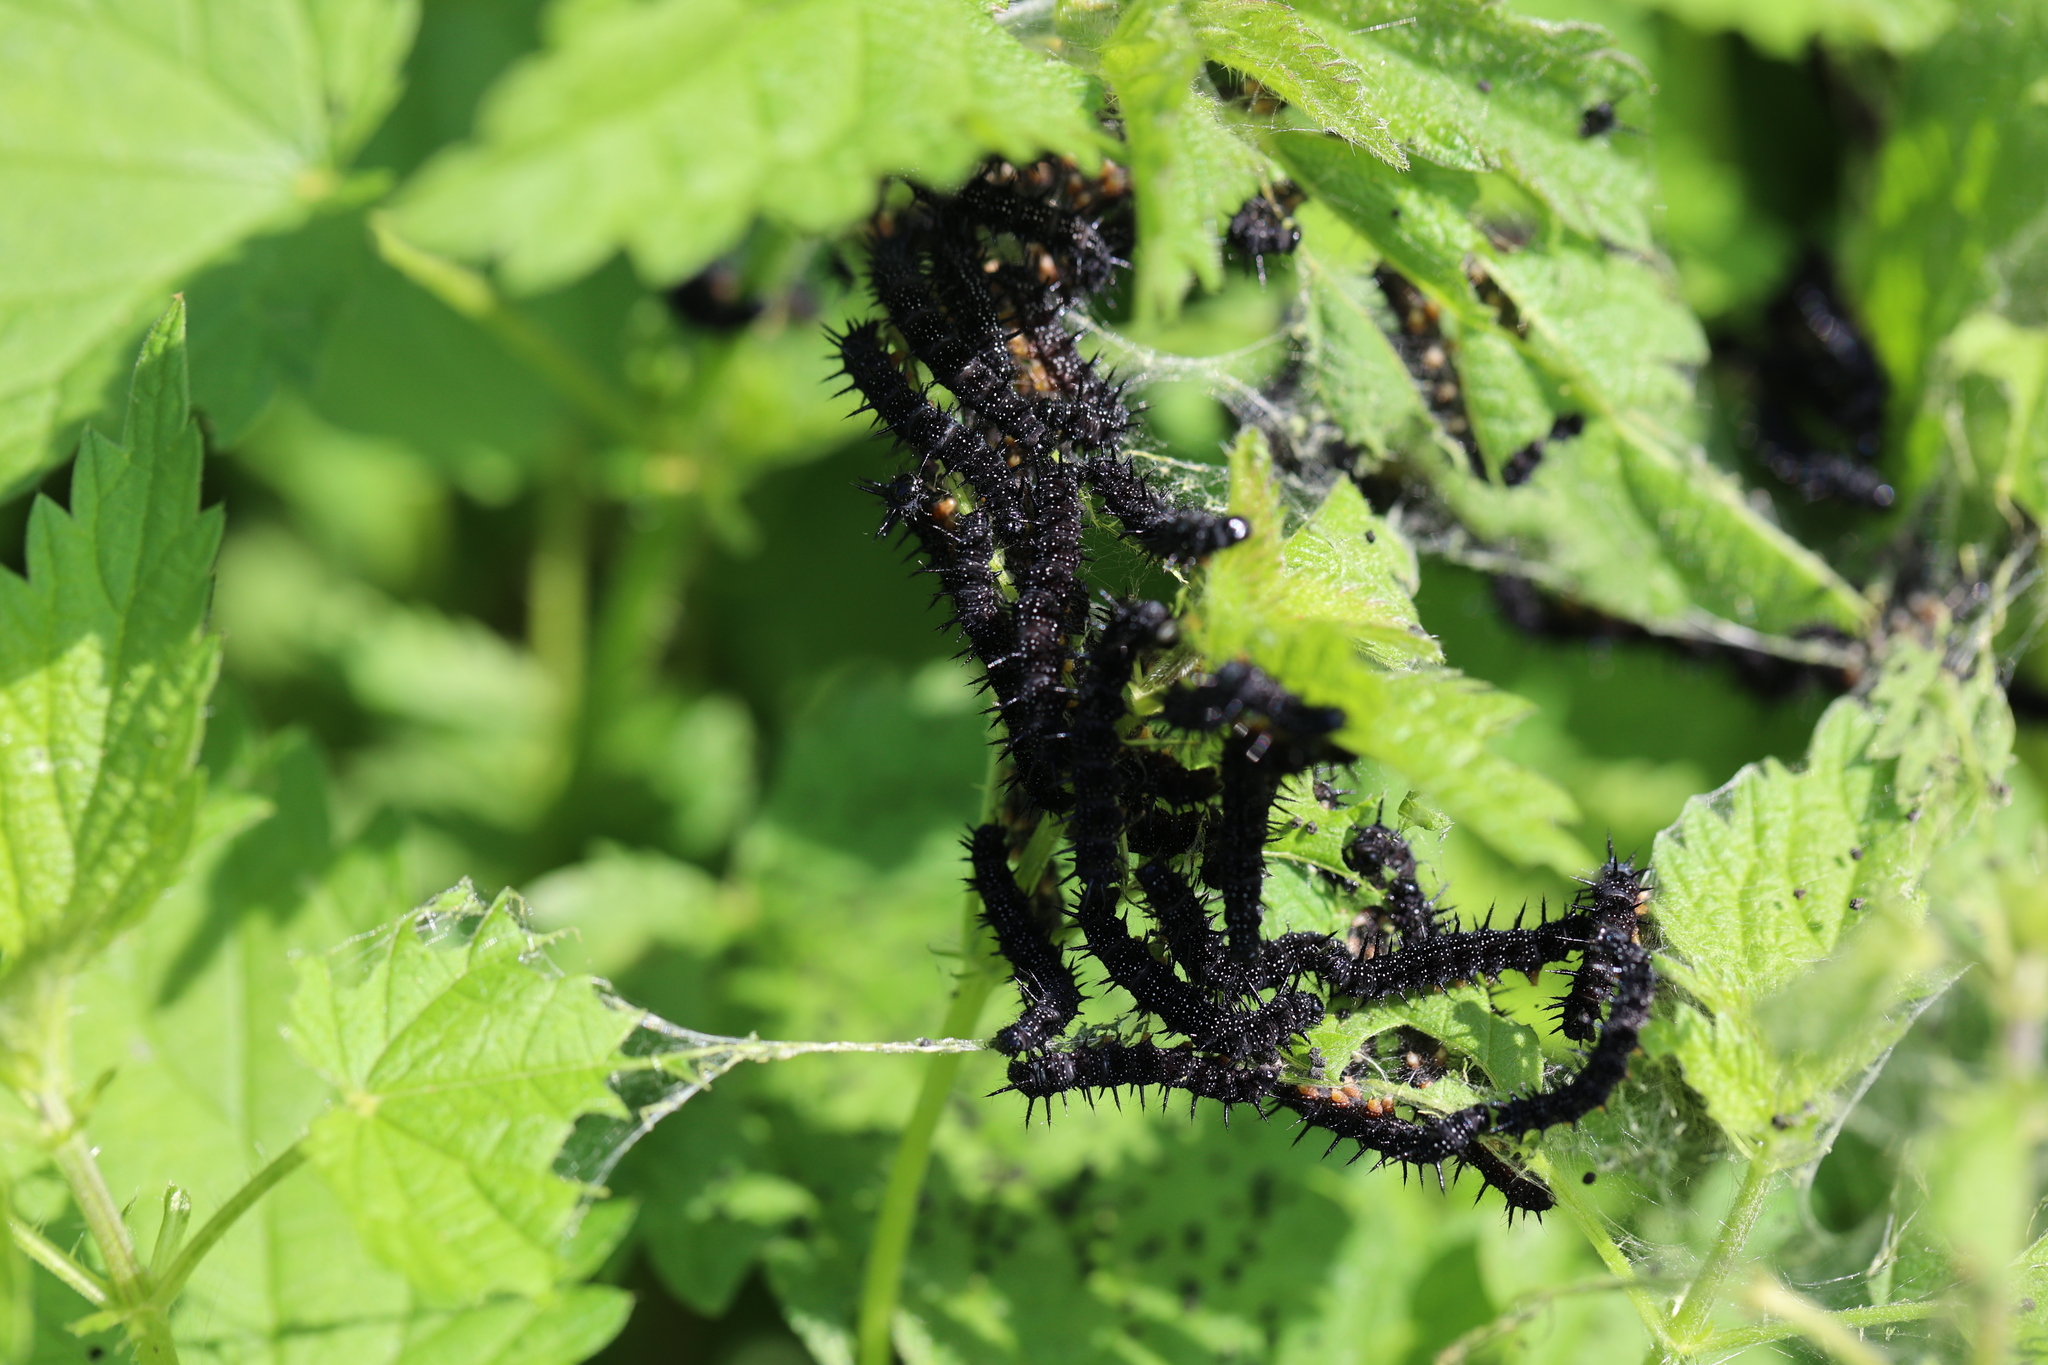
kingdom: Animalia
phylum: Arthropoda
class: Insecta
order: Lepidoptera
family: Nymphalidae
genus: Aglais
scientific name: Aglais io
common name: Peacock
